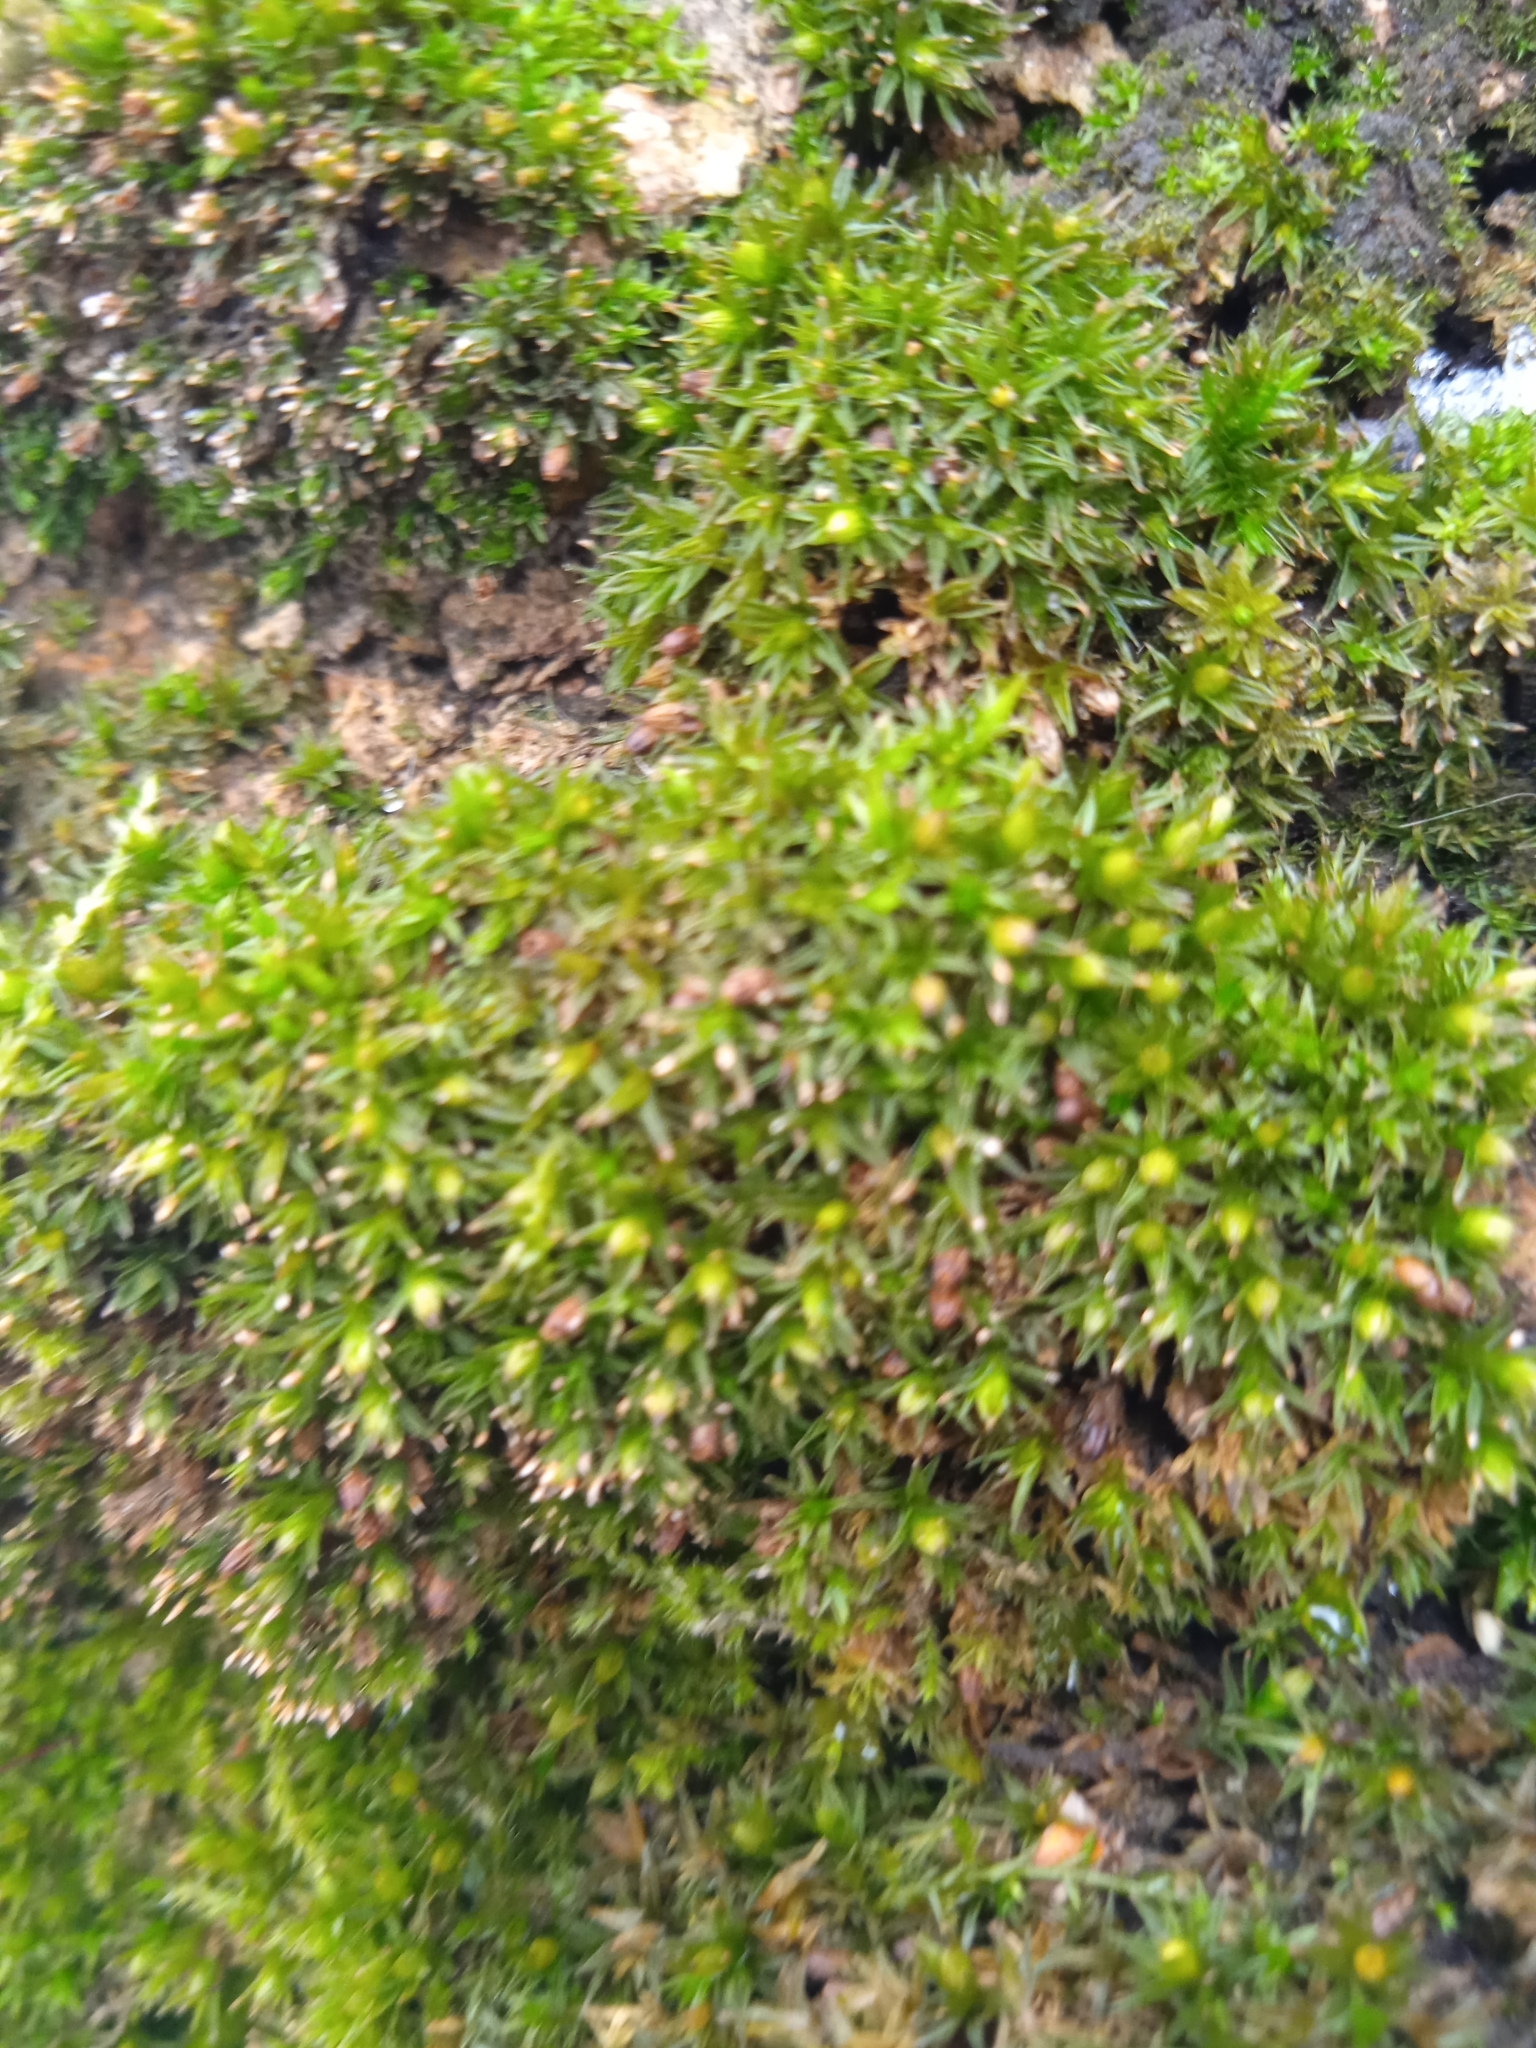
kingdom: Plantae
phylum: Bryophyta
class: Bryopsida
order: Orthotrichales
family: Orthotrichaceae
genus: Orthotrichum
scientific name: Orthotrichum diaphanum
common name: White-tipped bristle-moss
